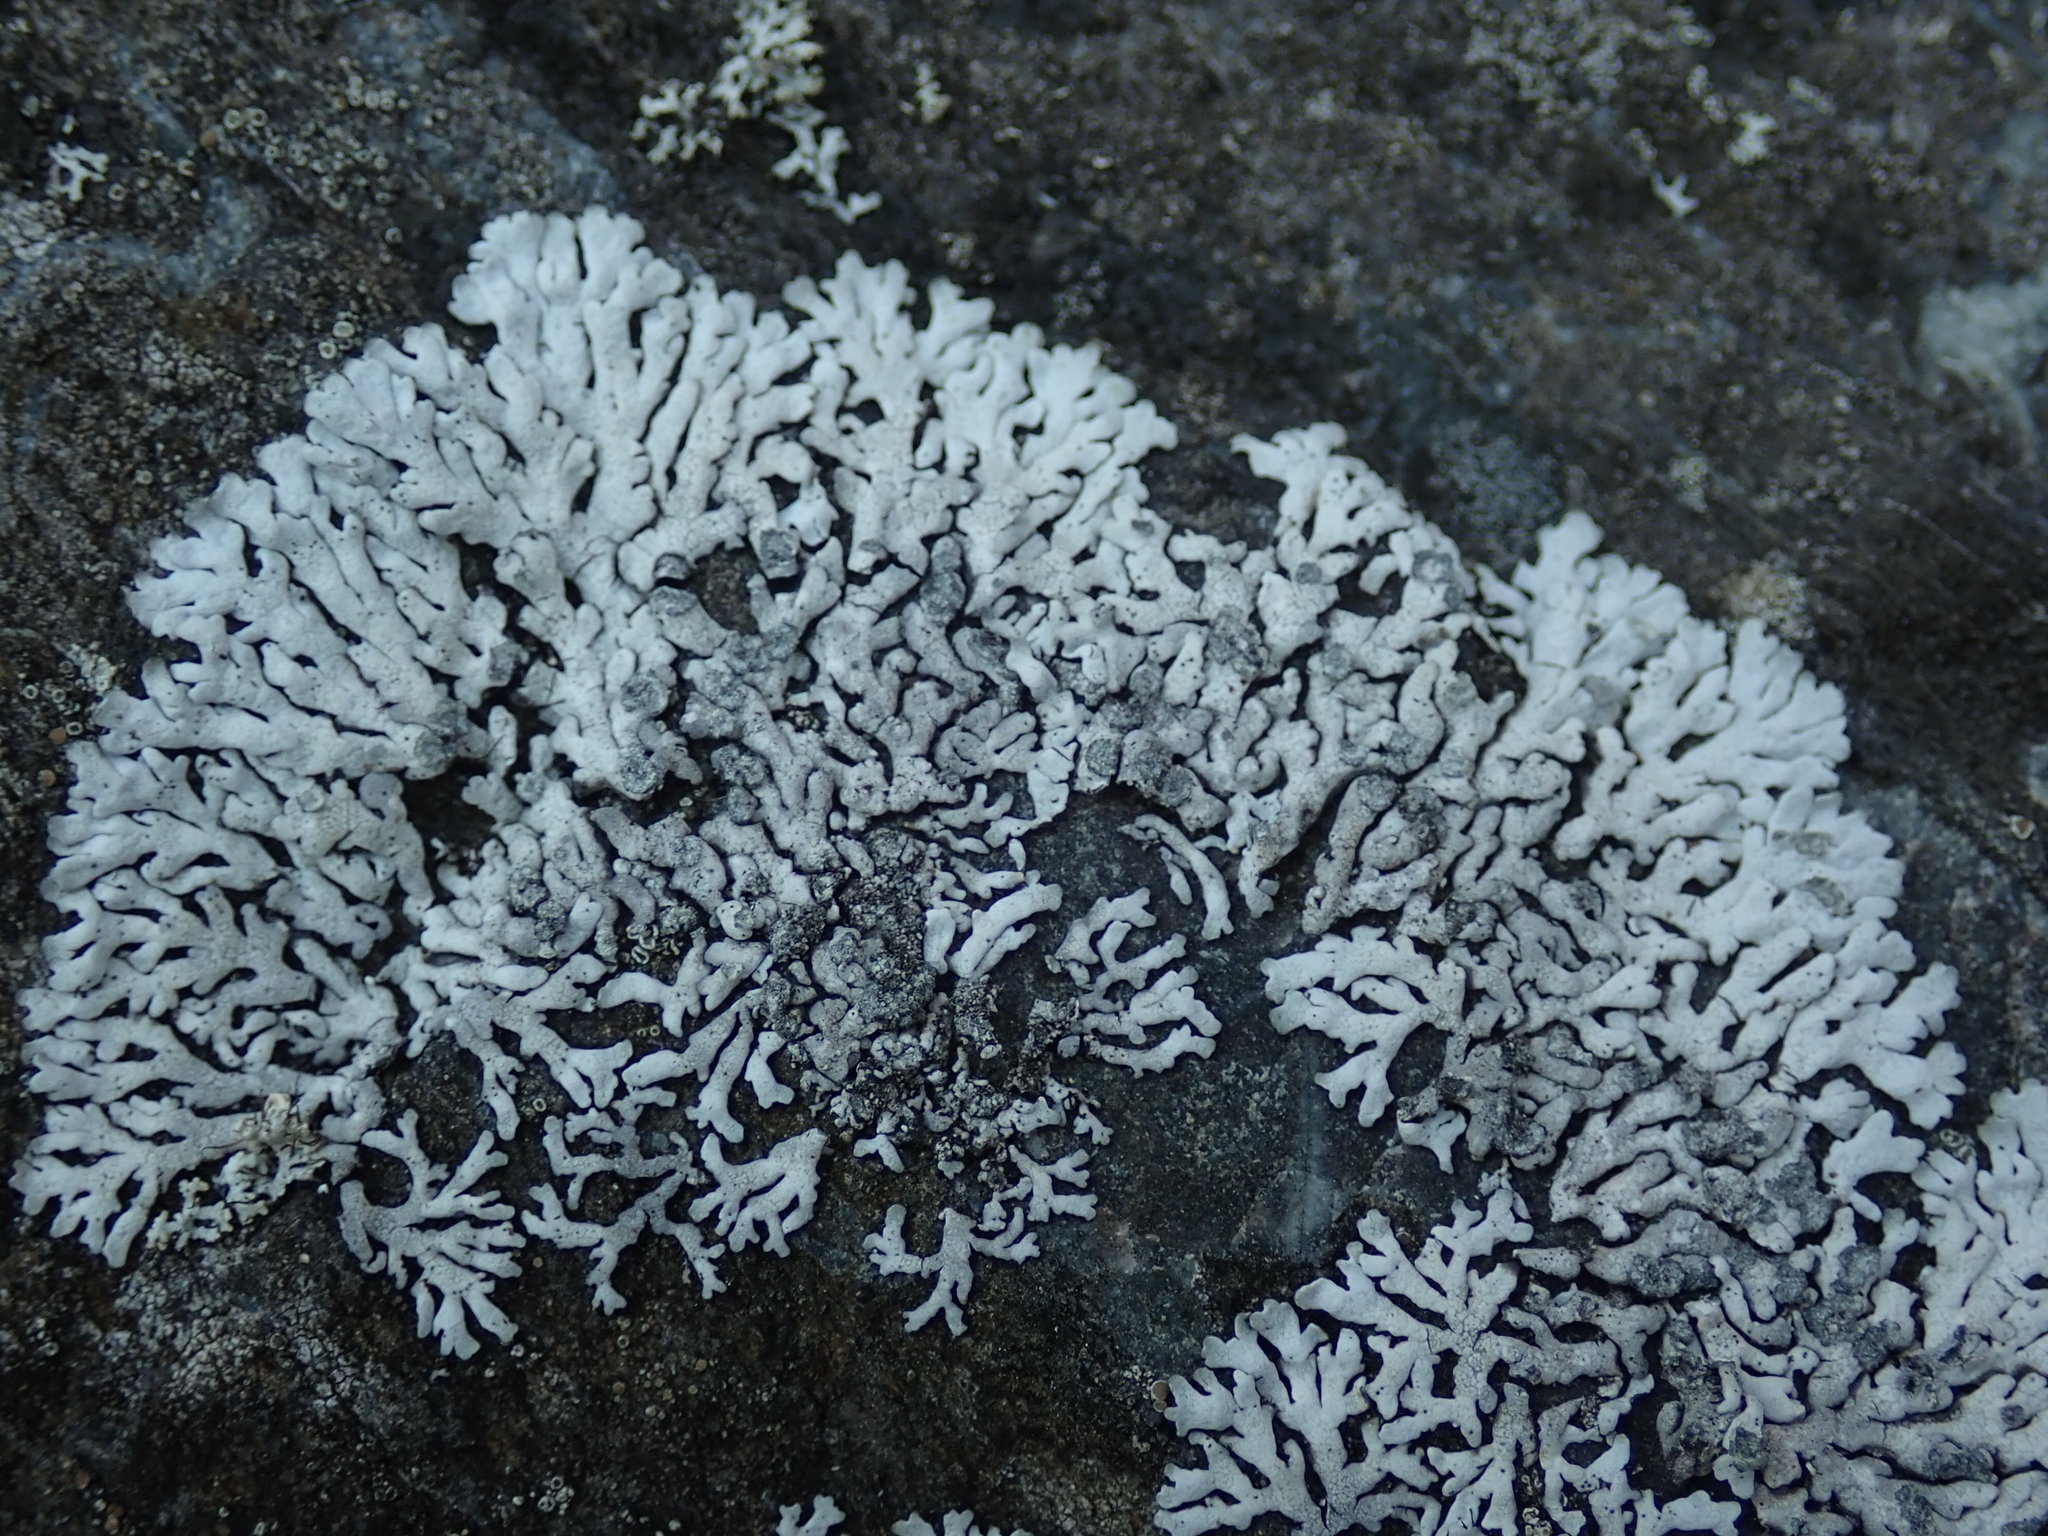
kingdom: Fungi
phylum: Ascomycota
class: Lecanoromycetes
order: Caliciales
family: Physciaceae
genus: Physcia
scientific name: Physcia caesia
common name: Blue-gray rosette lichen
